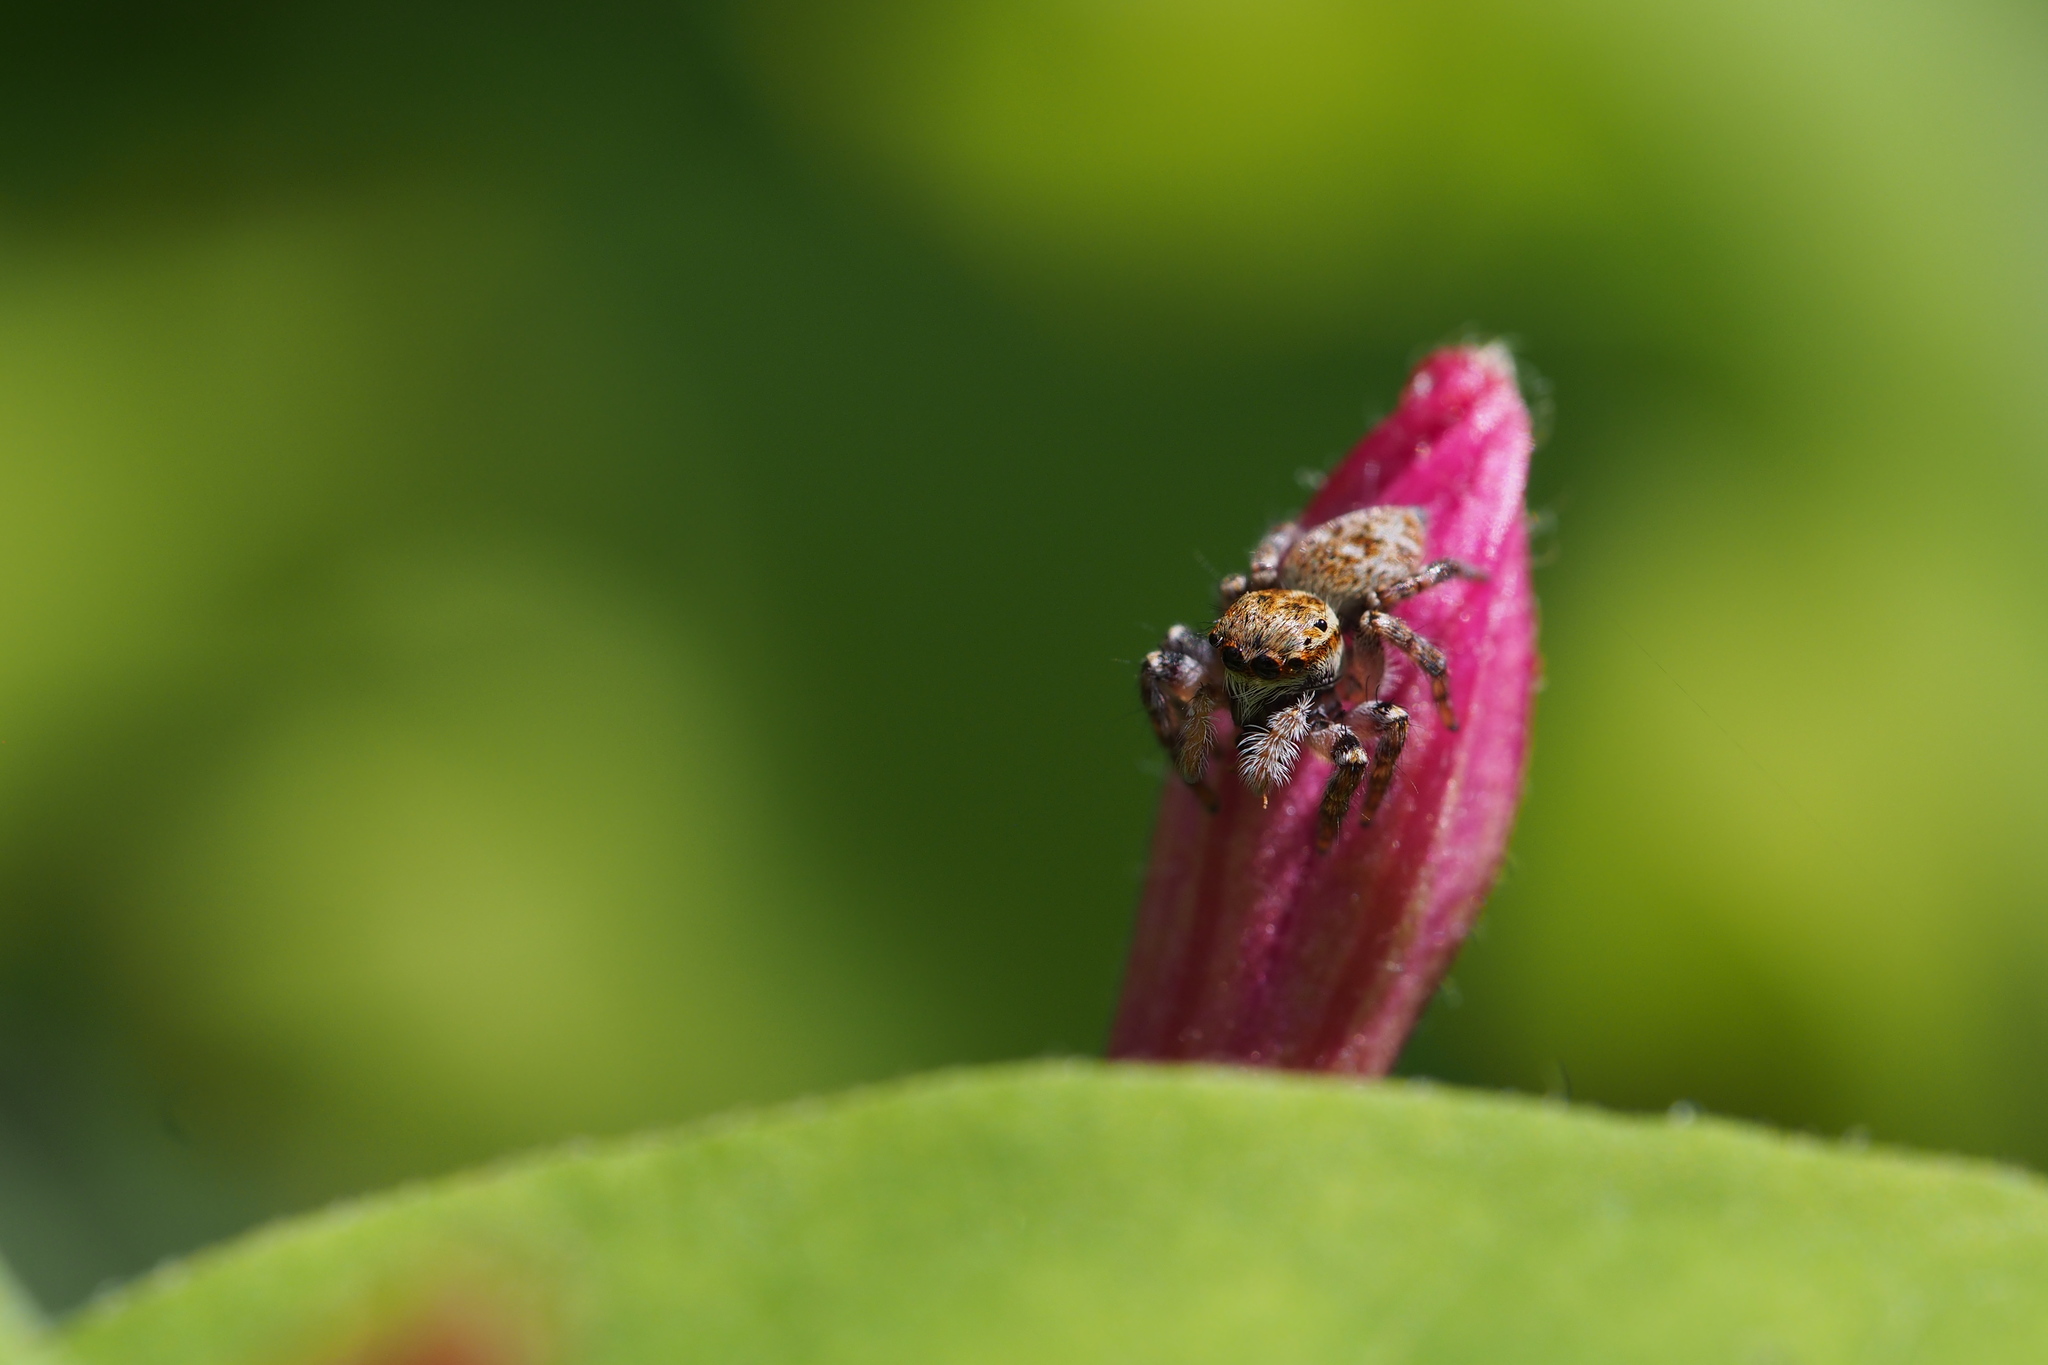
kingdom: Animalia
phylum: Arthropoda
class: Arachnida
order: Araneae
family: Salticidae
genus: Carrhotus
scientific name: Carrhotus xanthogramma
